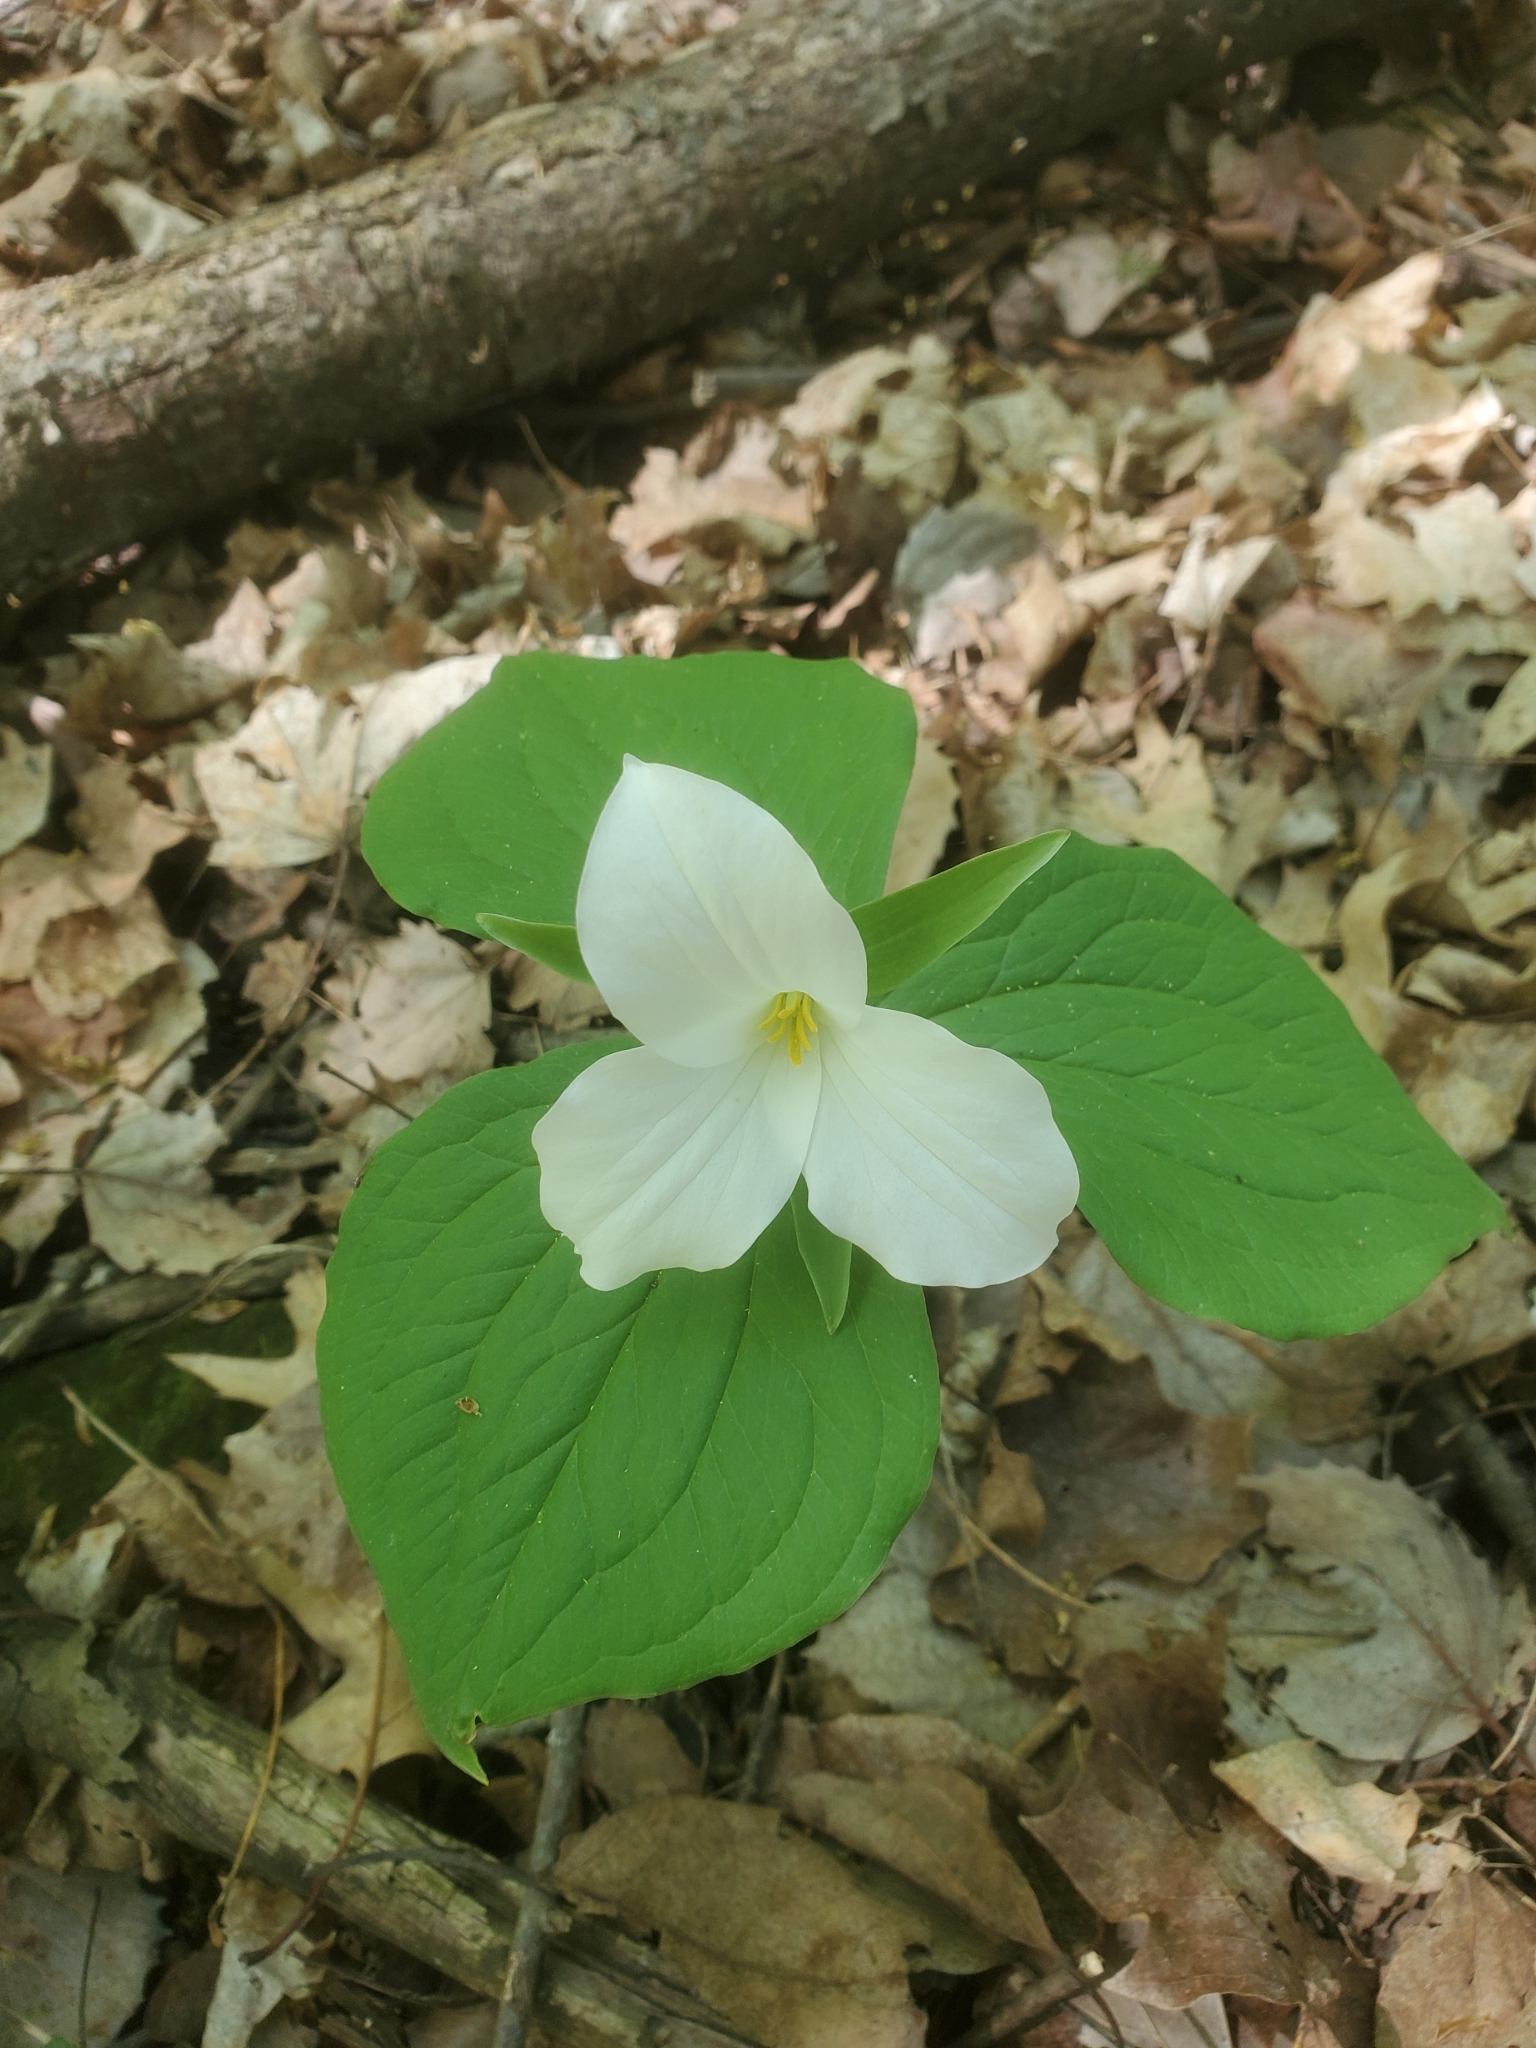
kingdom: Plantae
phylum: Tracheophyta
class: Liliopsida
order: Liliales
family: Melanthiaceae
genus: Trillium
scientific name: Trillium grandiflorum
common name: Great white trillium
